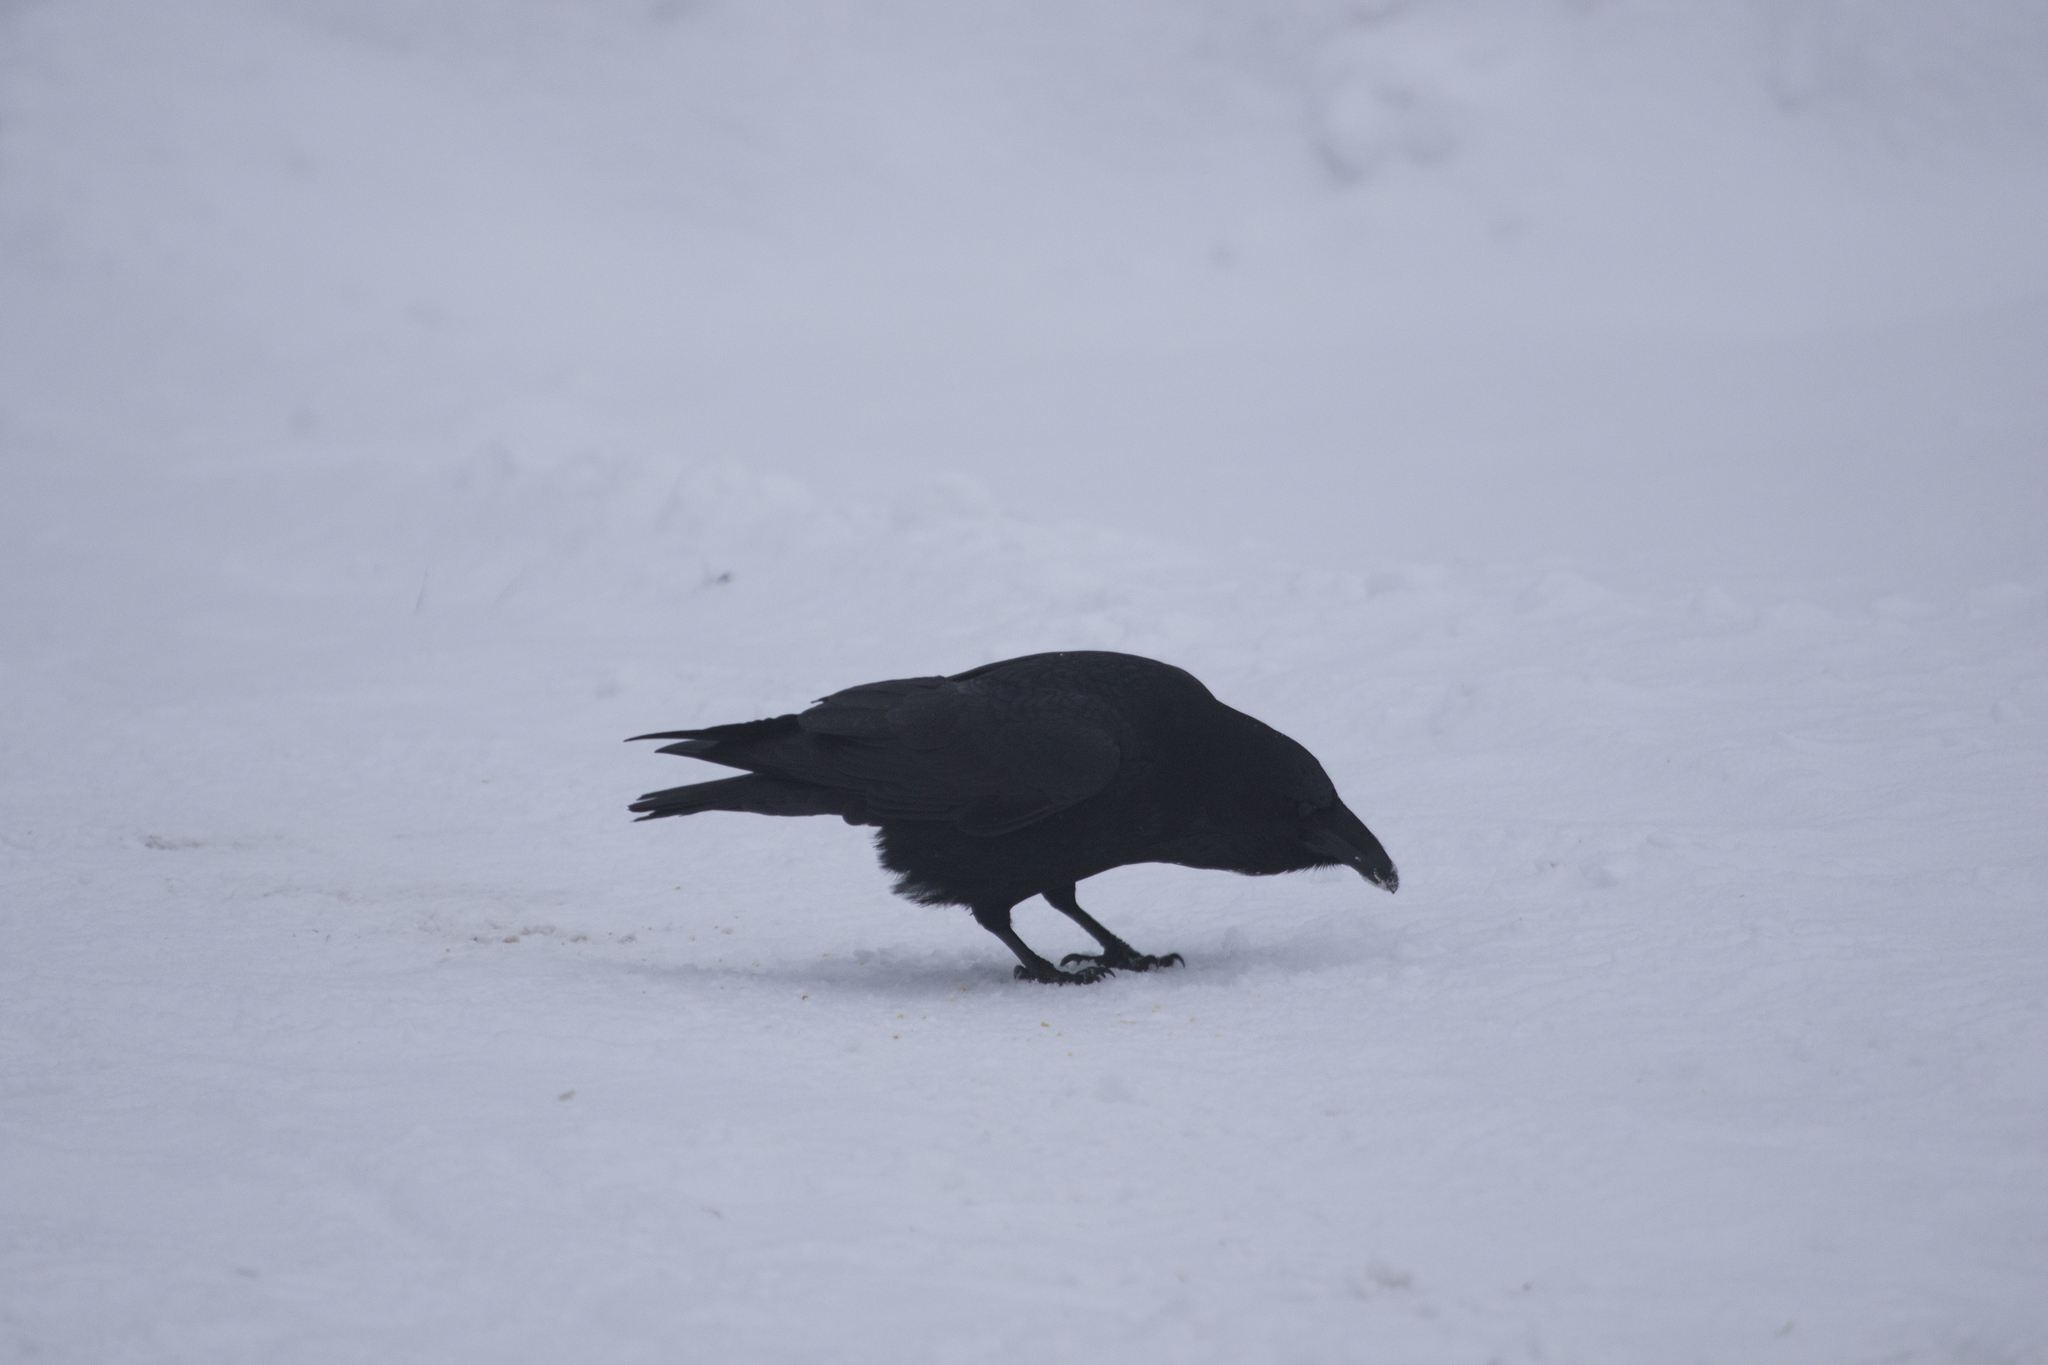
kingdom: Animalia
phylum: Chordata
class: Aves
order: Passeriformes
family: Corvidae
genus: Corvus
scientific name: Corvus corax
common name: Common raven
